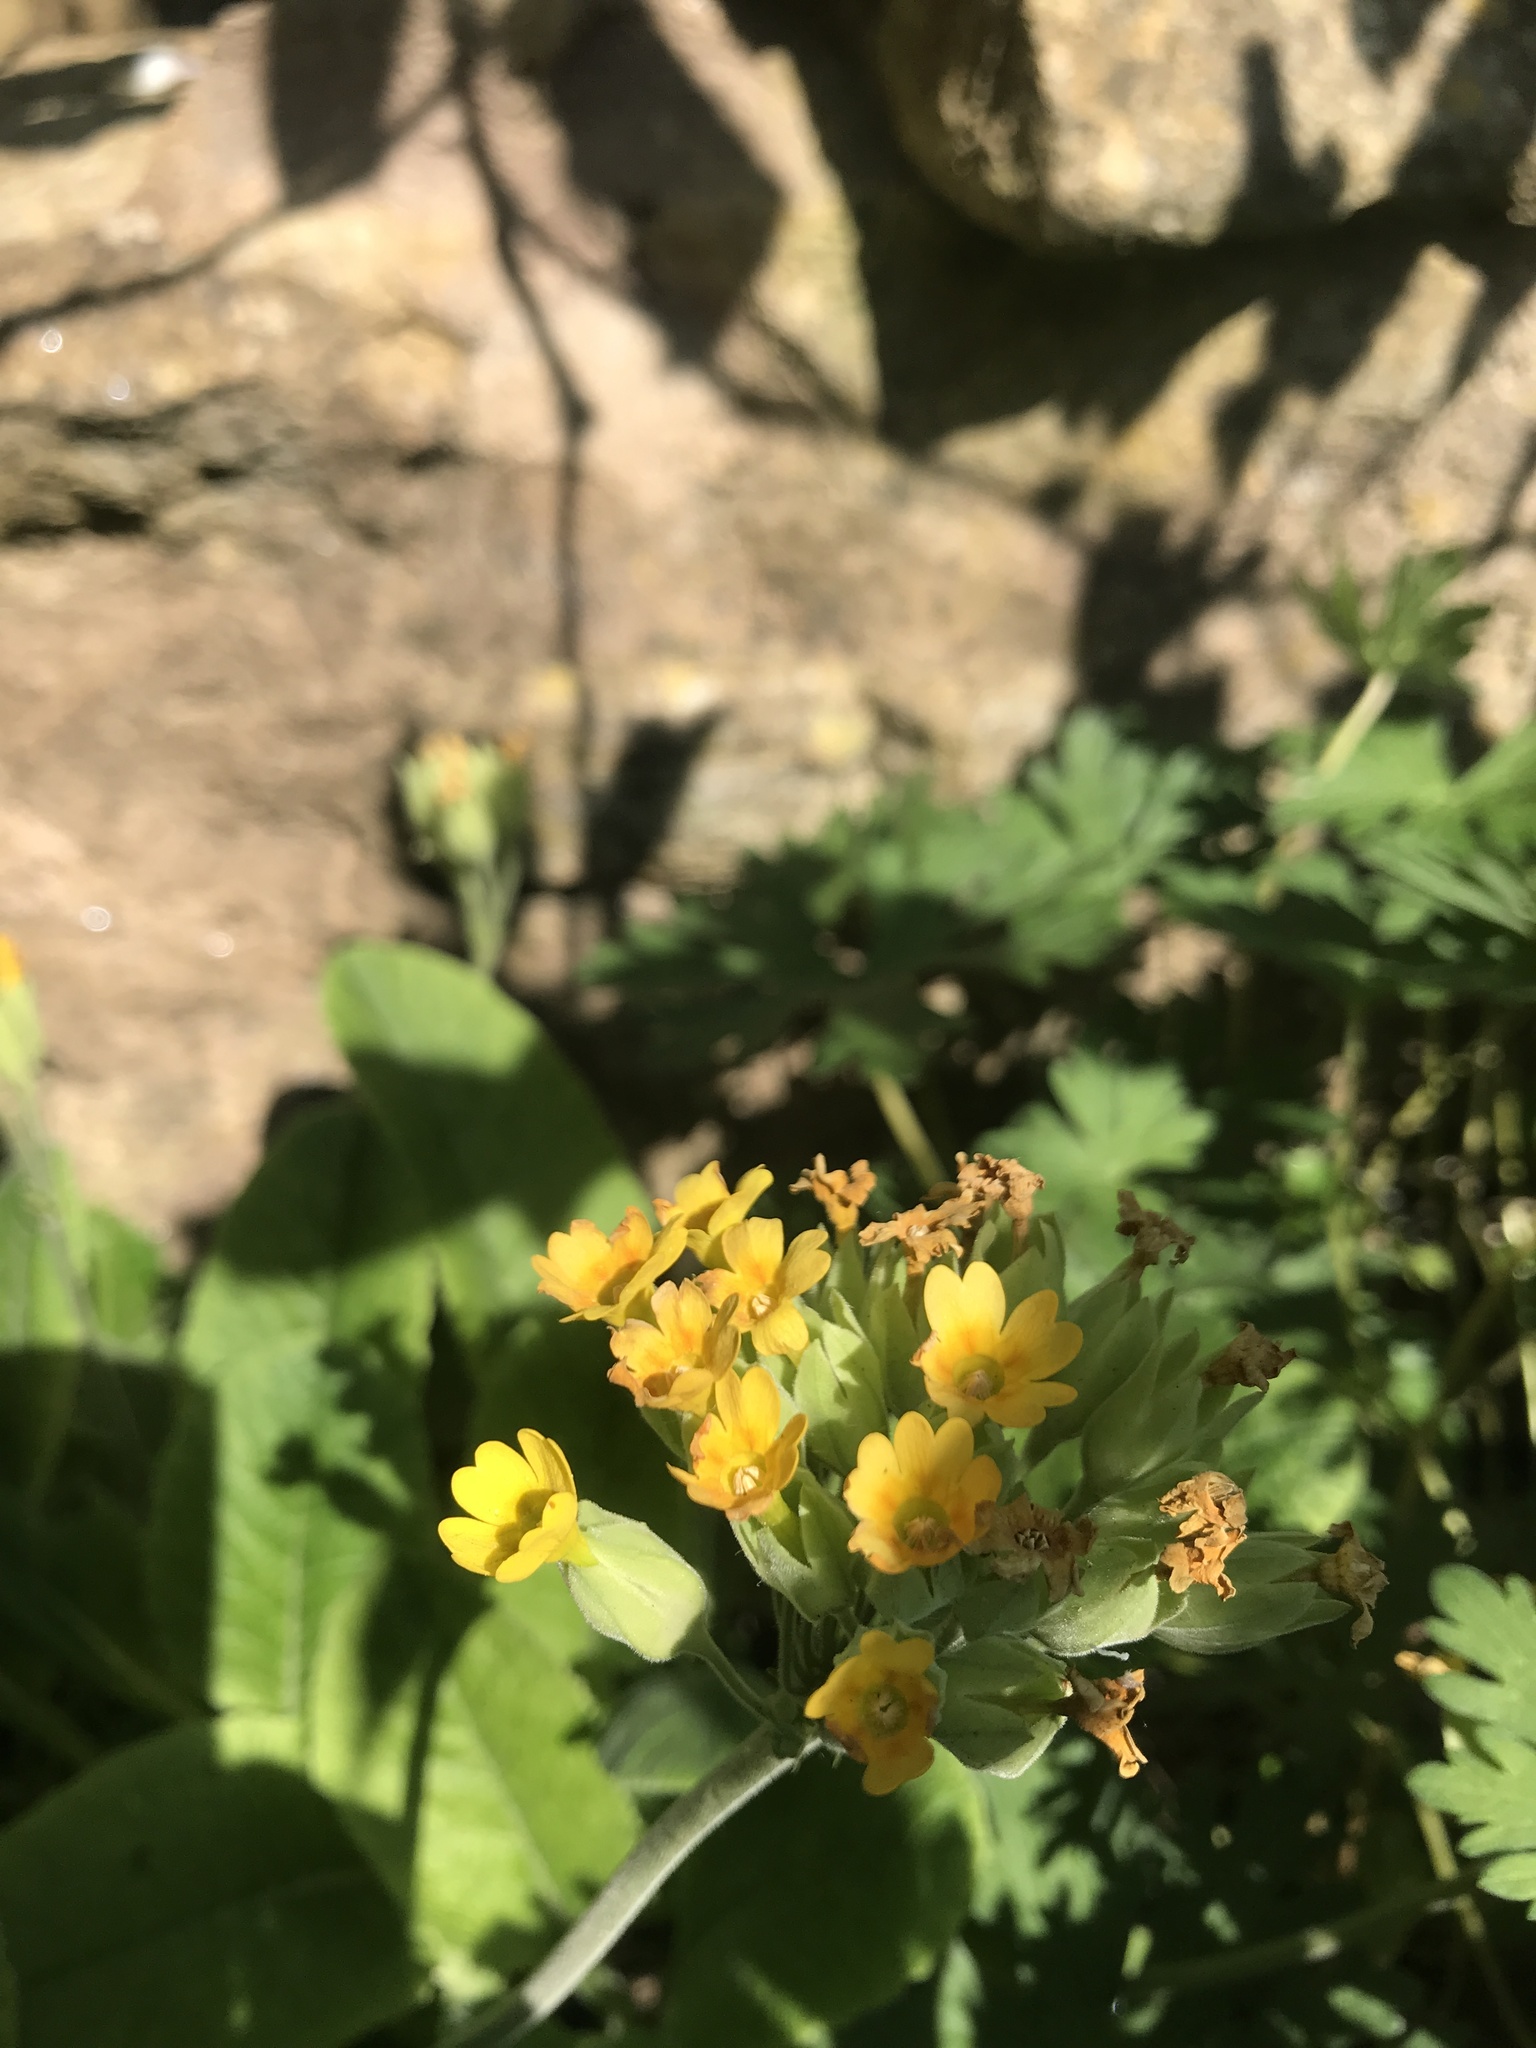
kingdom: Plantae
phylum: Tracheophyta
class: Magnoliopsida
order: Ericales
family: Primulaceae
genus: Primula
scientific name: Primula veris
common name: Cowslip
